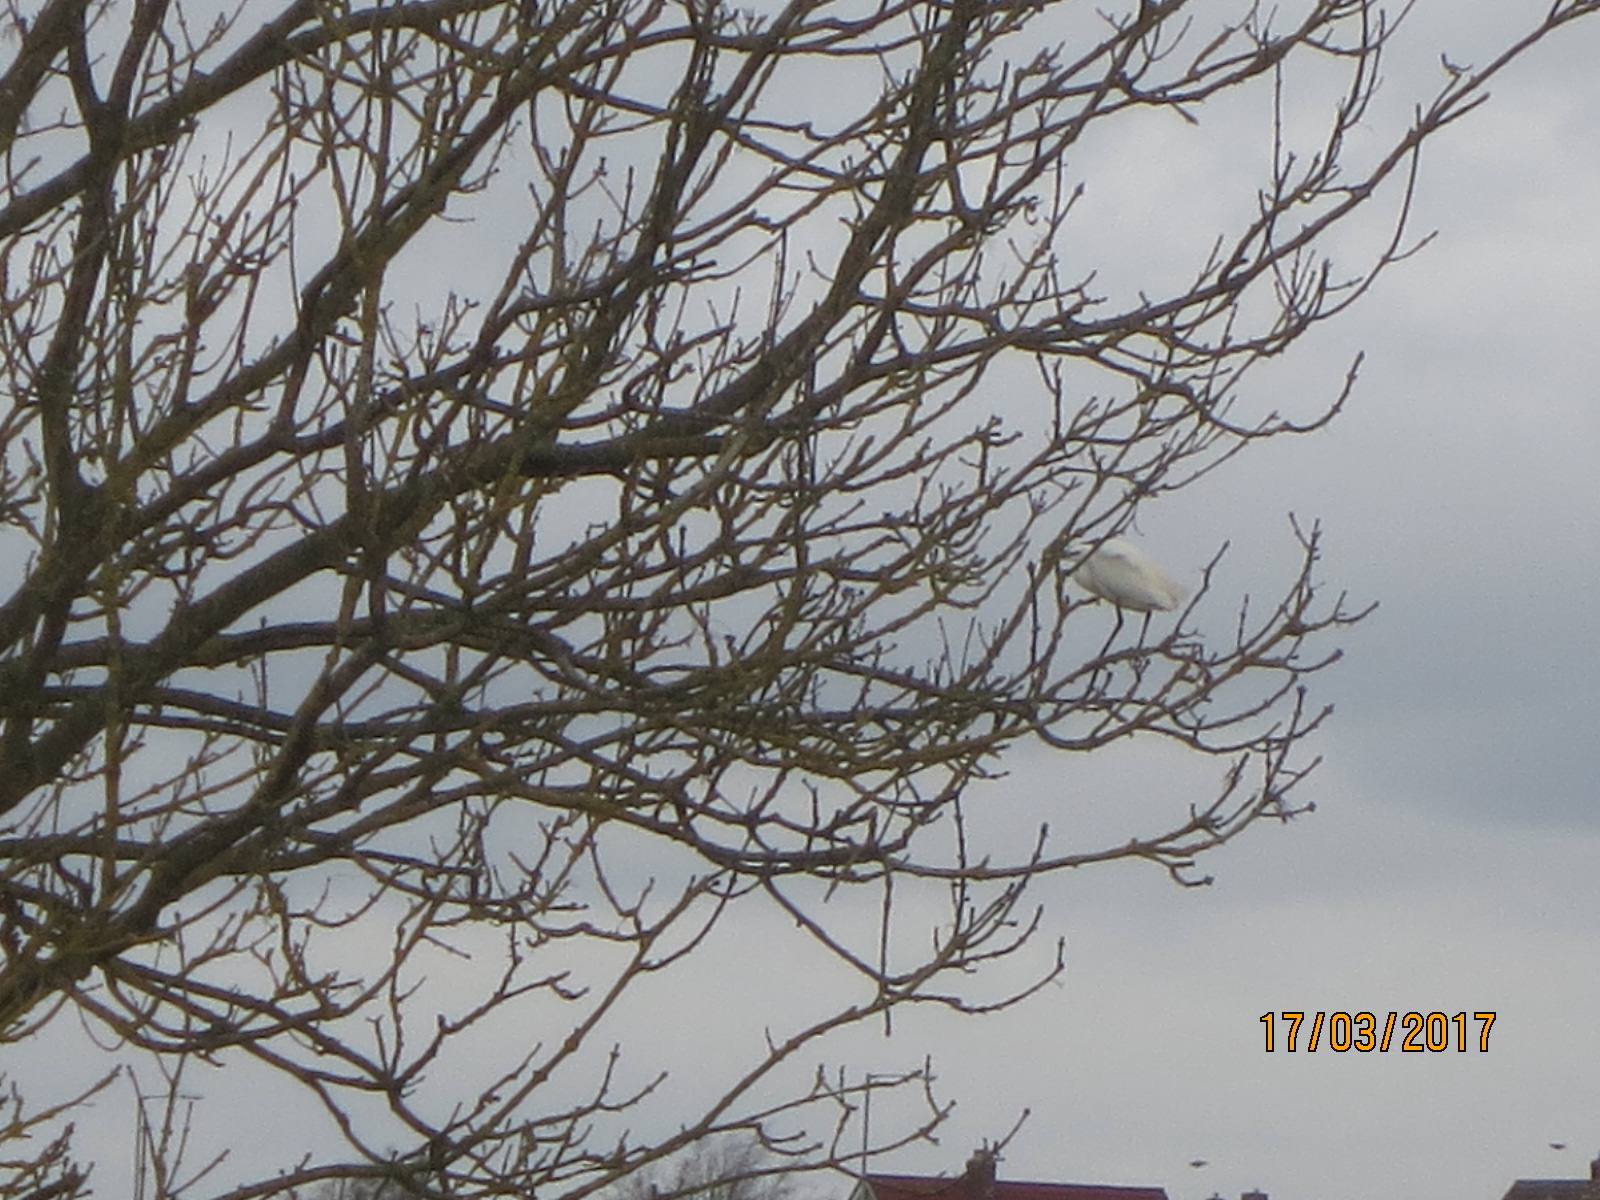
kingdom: Animalia
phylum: Chordata
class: Aves
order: Pelecaniformes
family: Ardeidae
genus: Egretta
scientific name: Egretta garzetta
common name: Little egret
